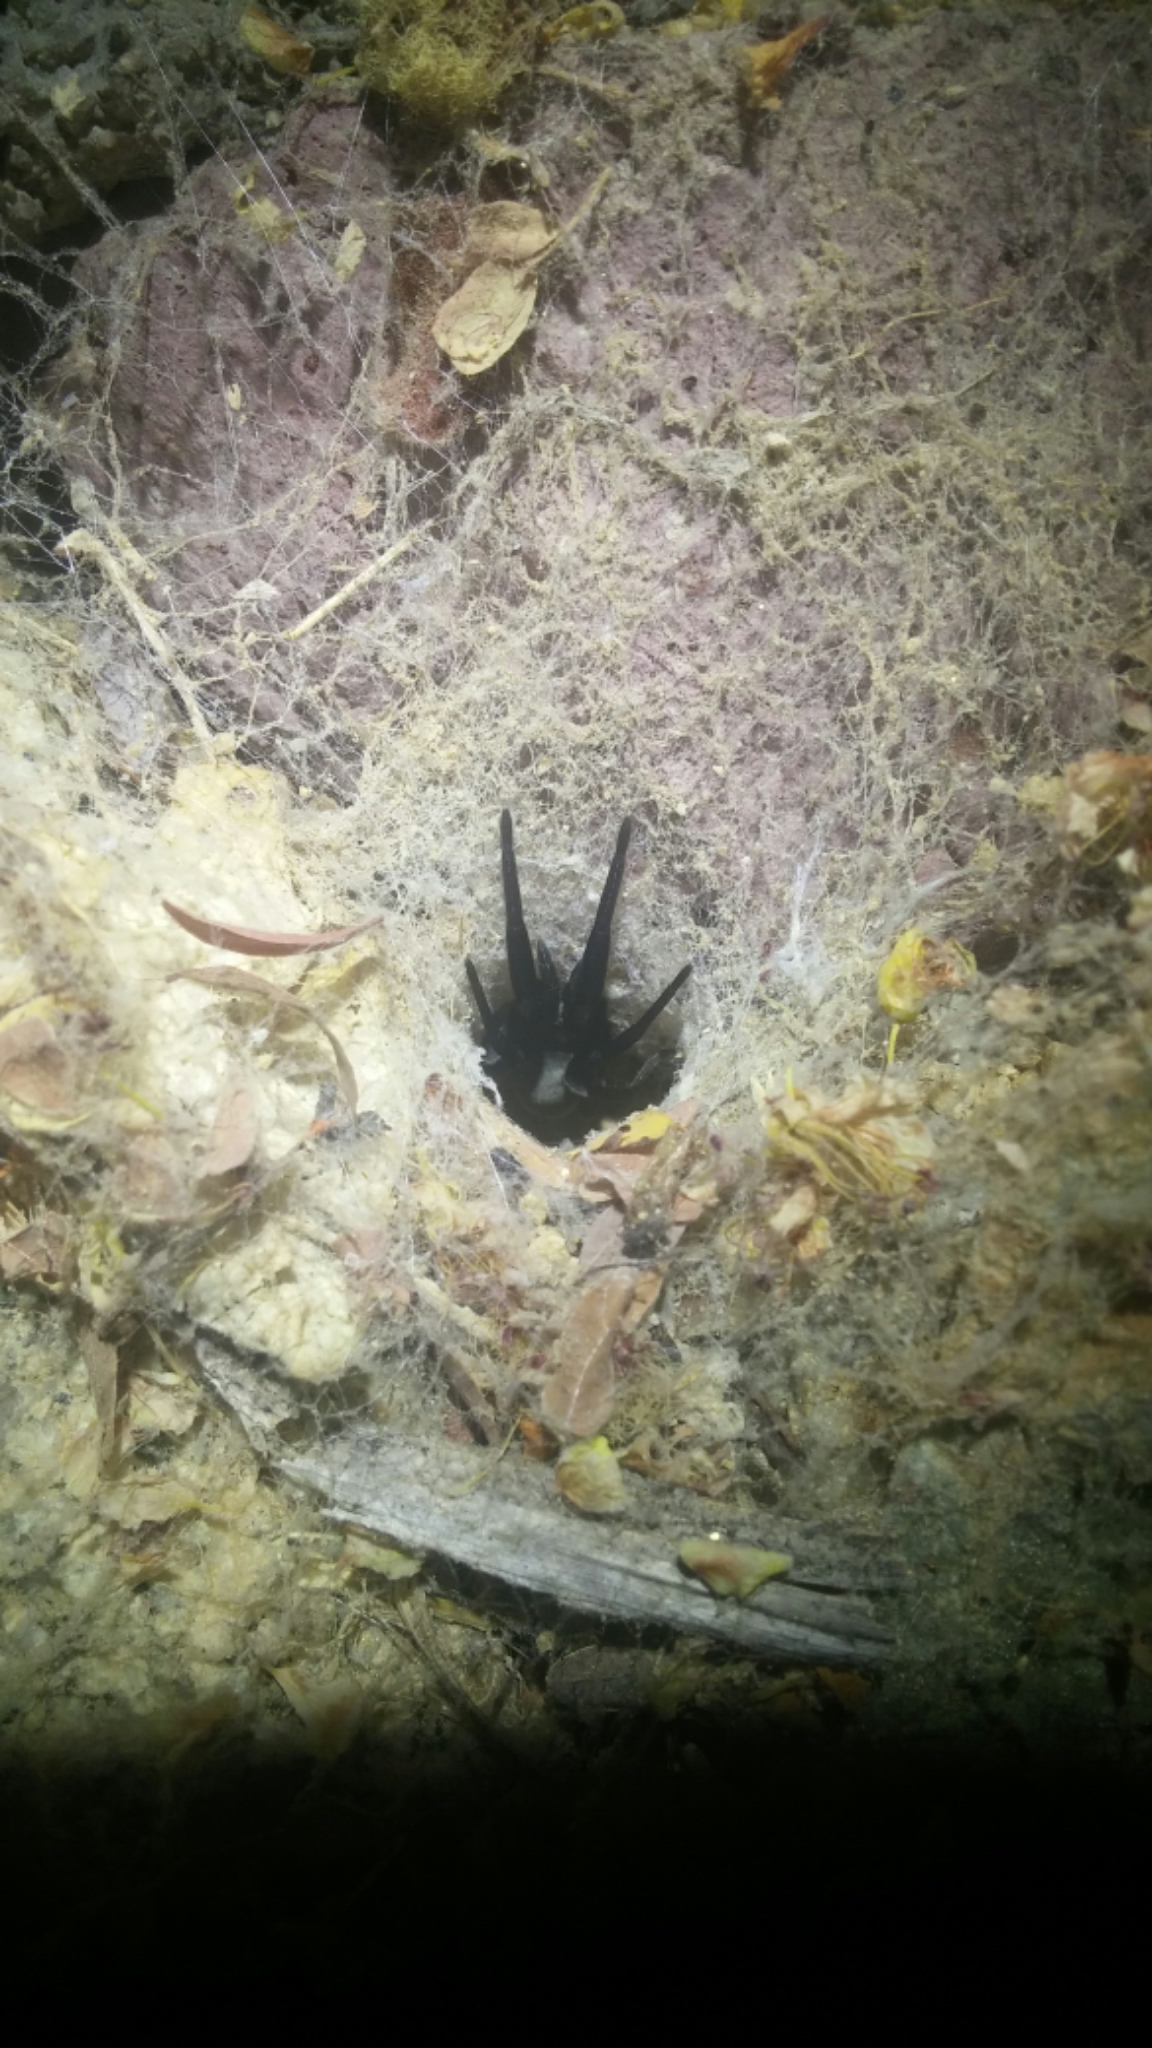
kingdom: Animalia
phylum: Arthropoda
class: Arachnida
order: Araneae
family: Filistatidae
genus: Kukulcania
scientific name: Kukulcania
